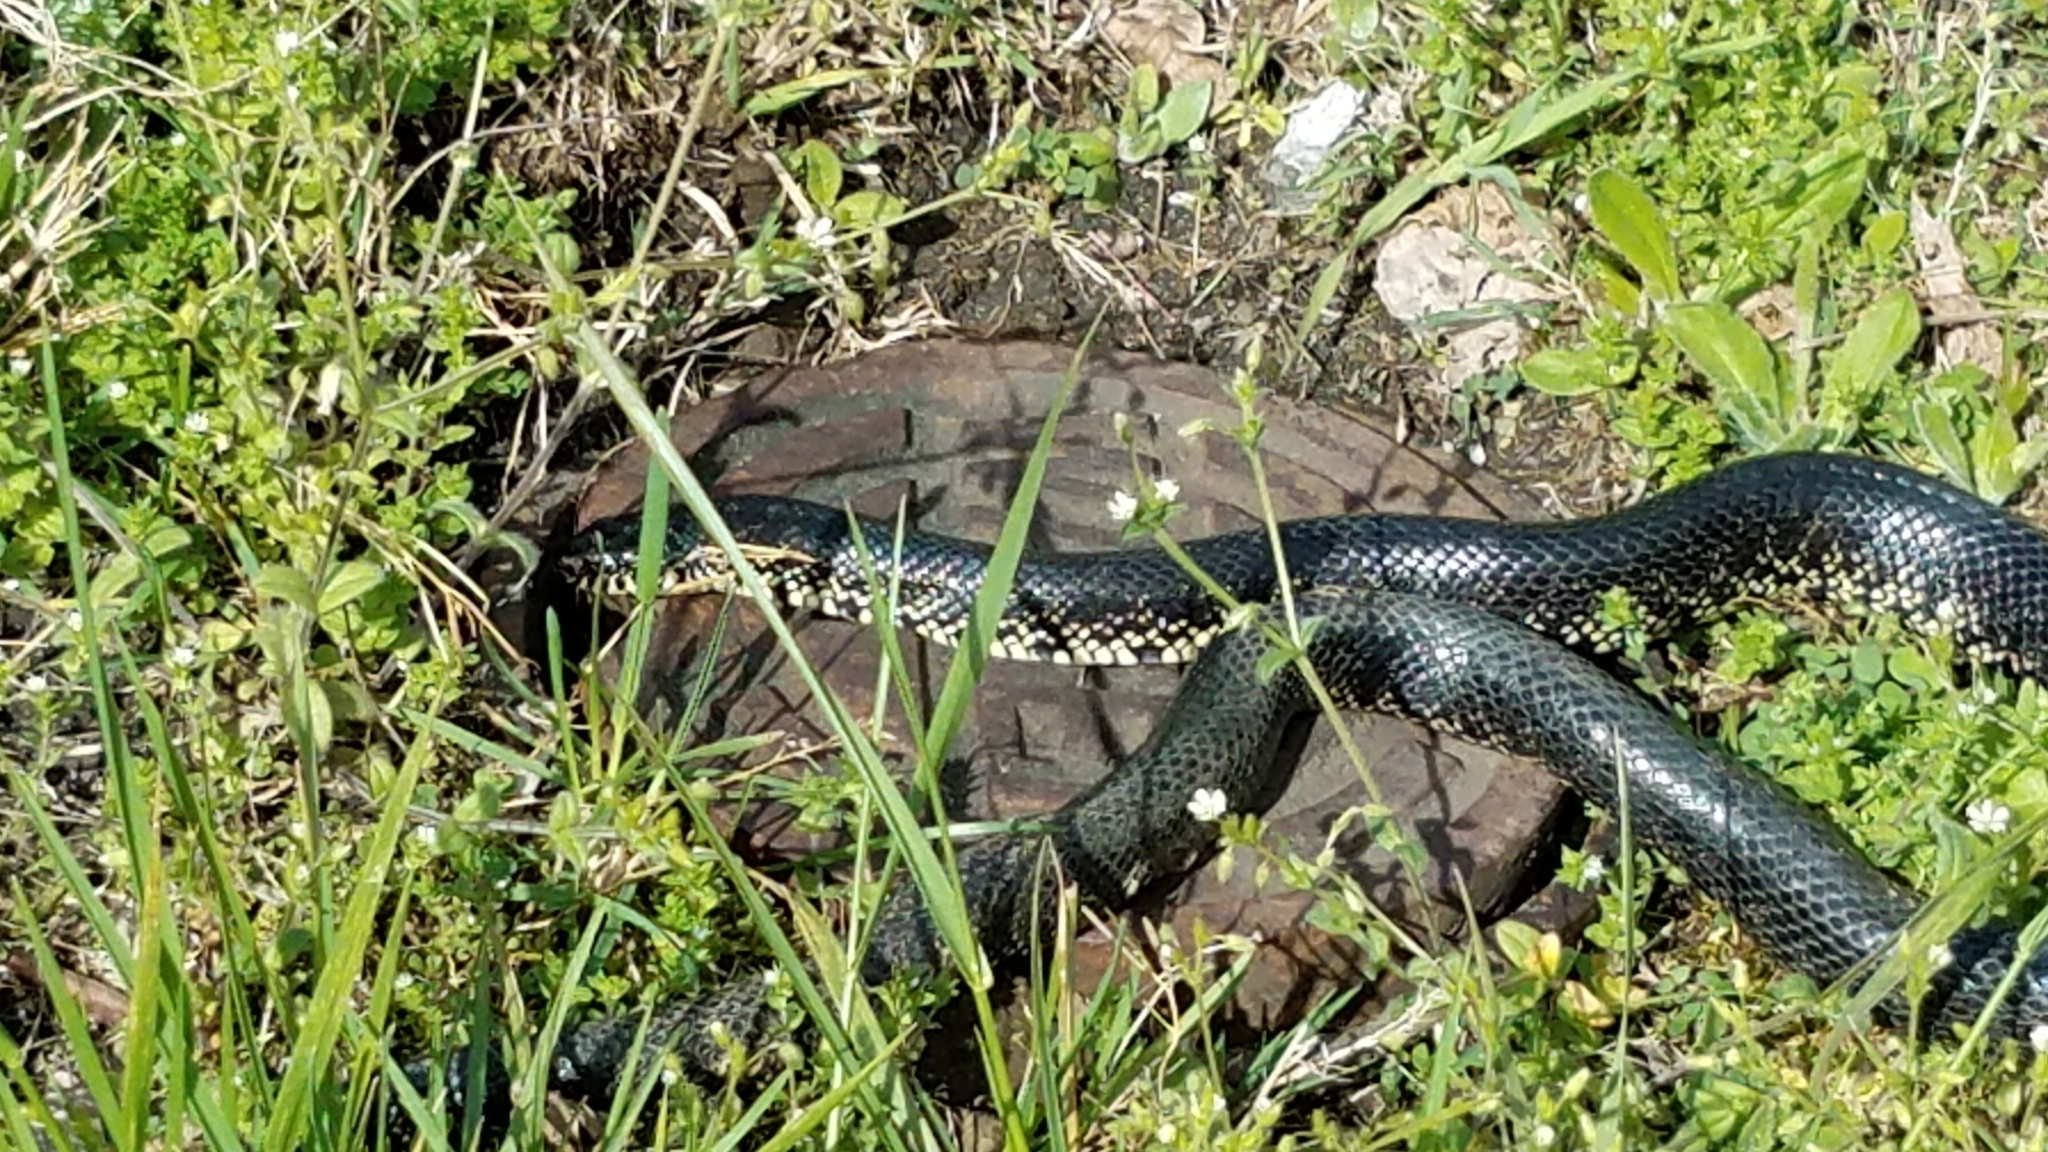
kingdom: Animalia
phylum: Chordata
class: Squamata
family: Colubridae
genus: Lampropeltis
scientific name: Lampropeltis nigra
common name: Black kingsnake
